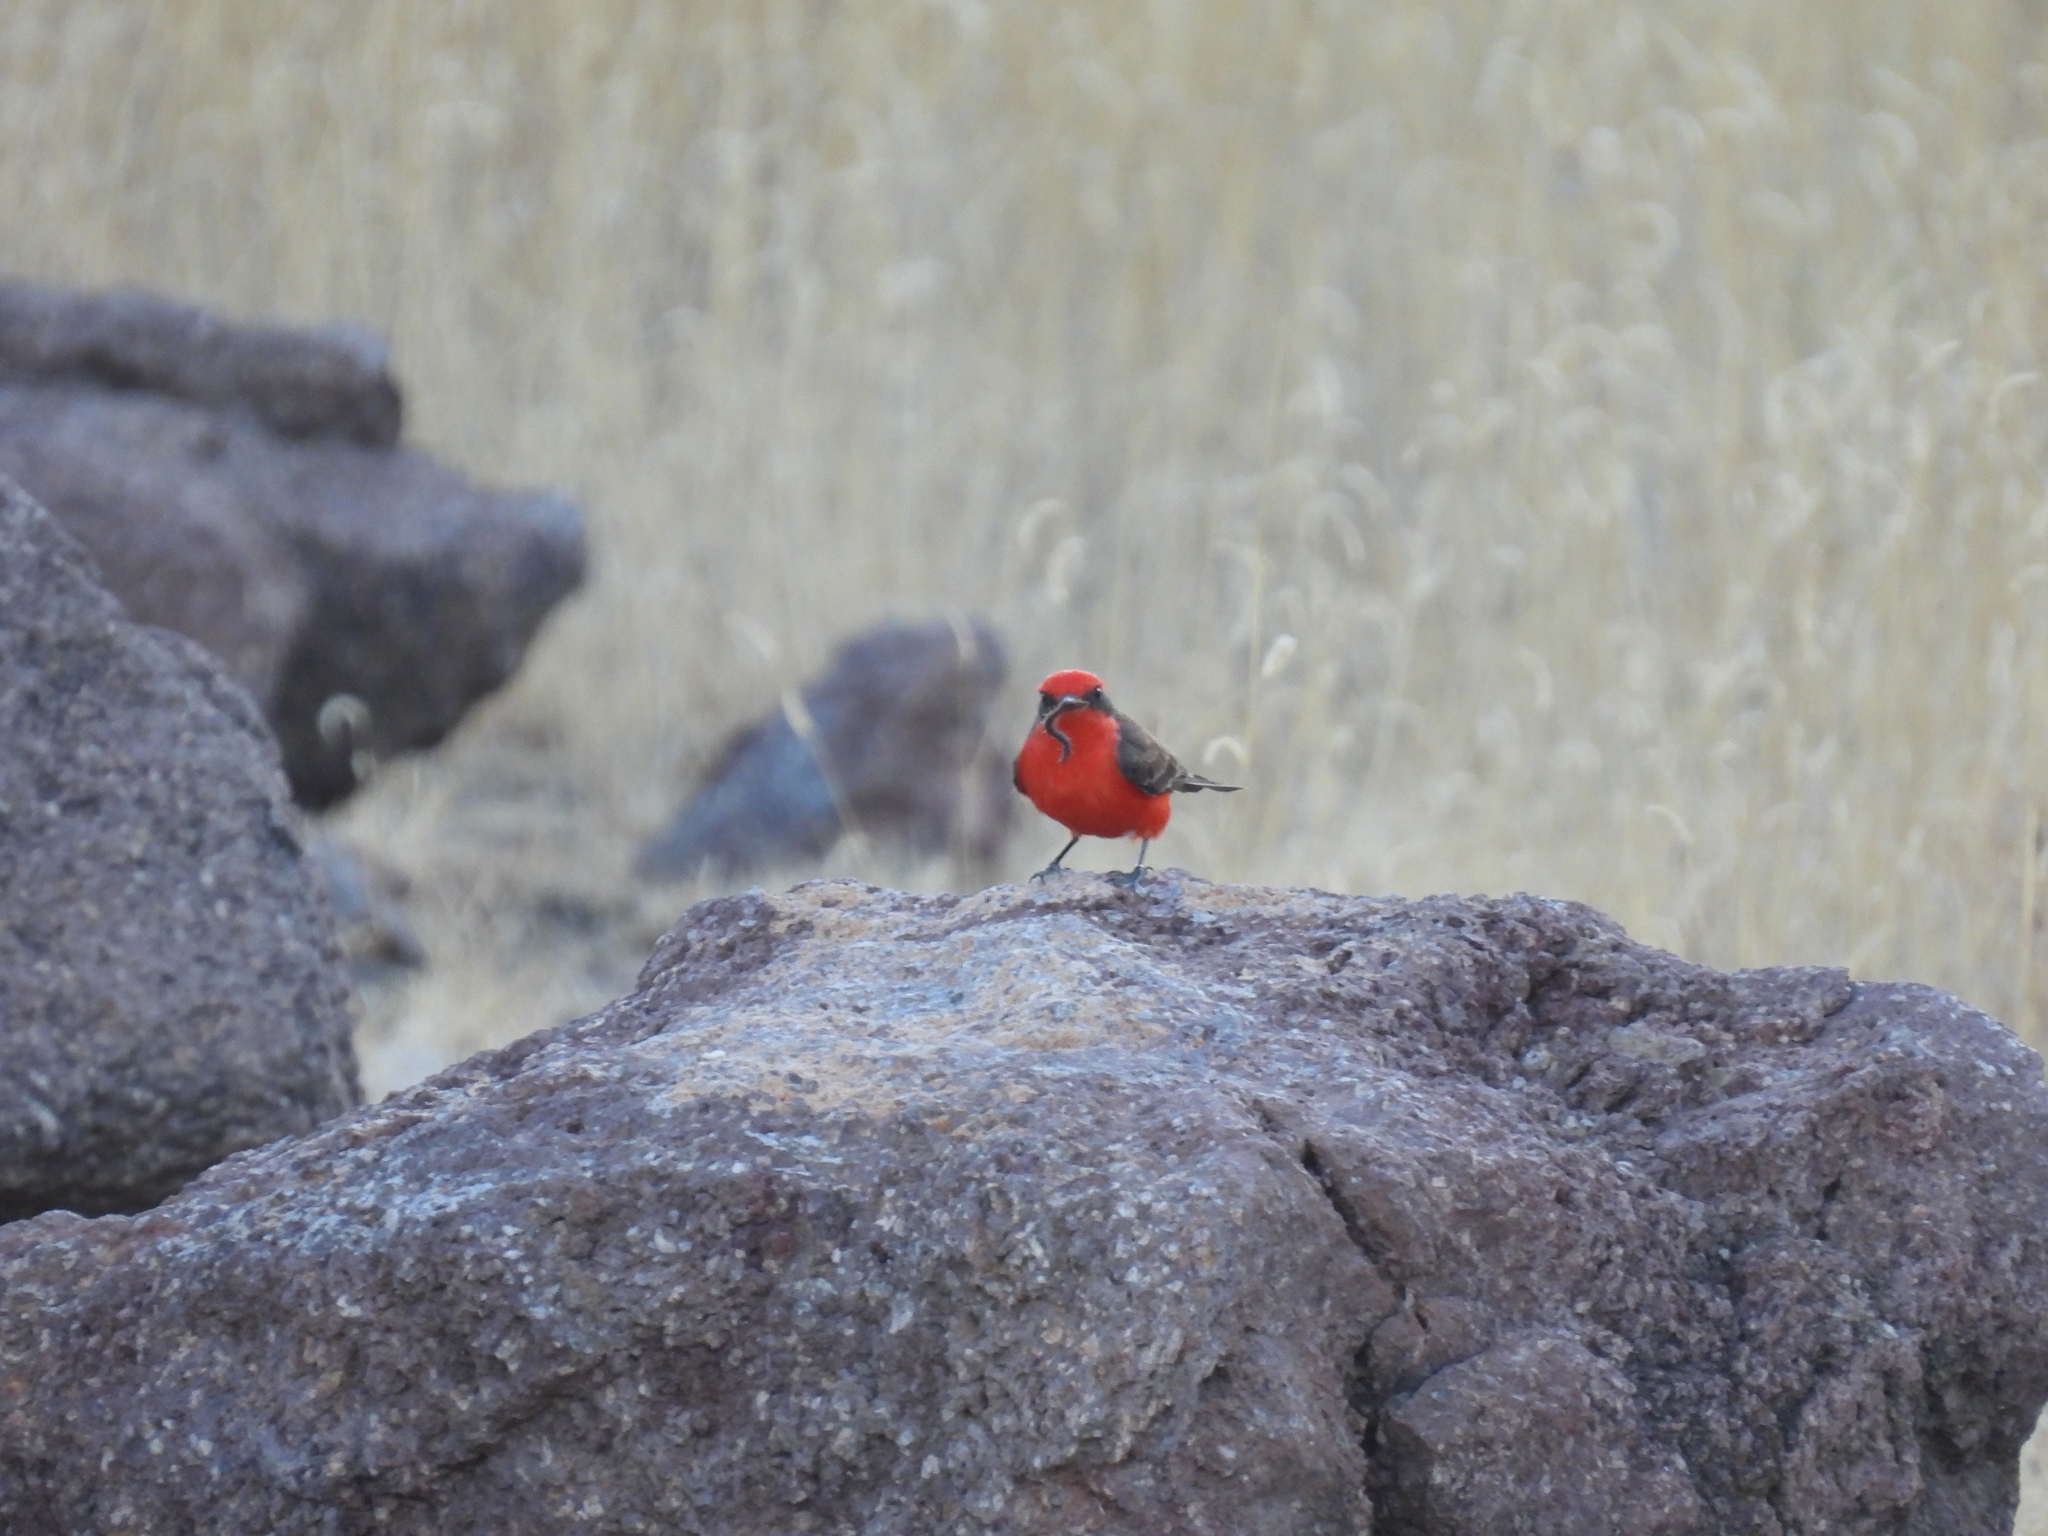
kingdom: Animalia
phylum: Chordata
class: Aves
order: Passeriformes
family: Tyrannidae
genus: Pyrocephalus
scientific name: Pyrocephalus rubinus
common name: Vermilion flycatcher
